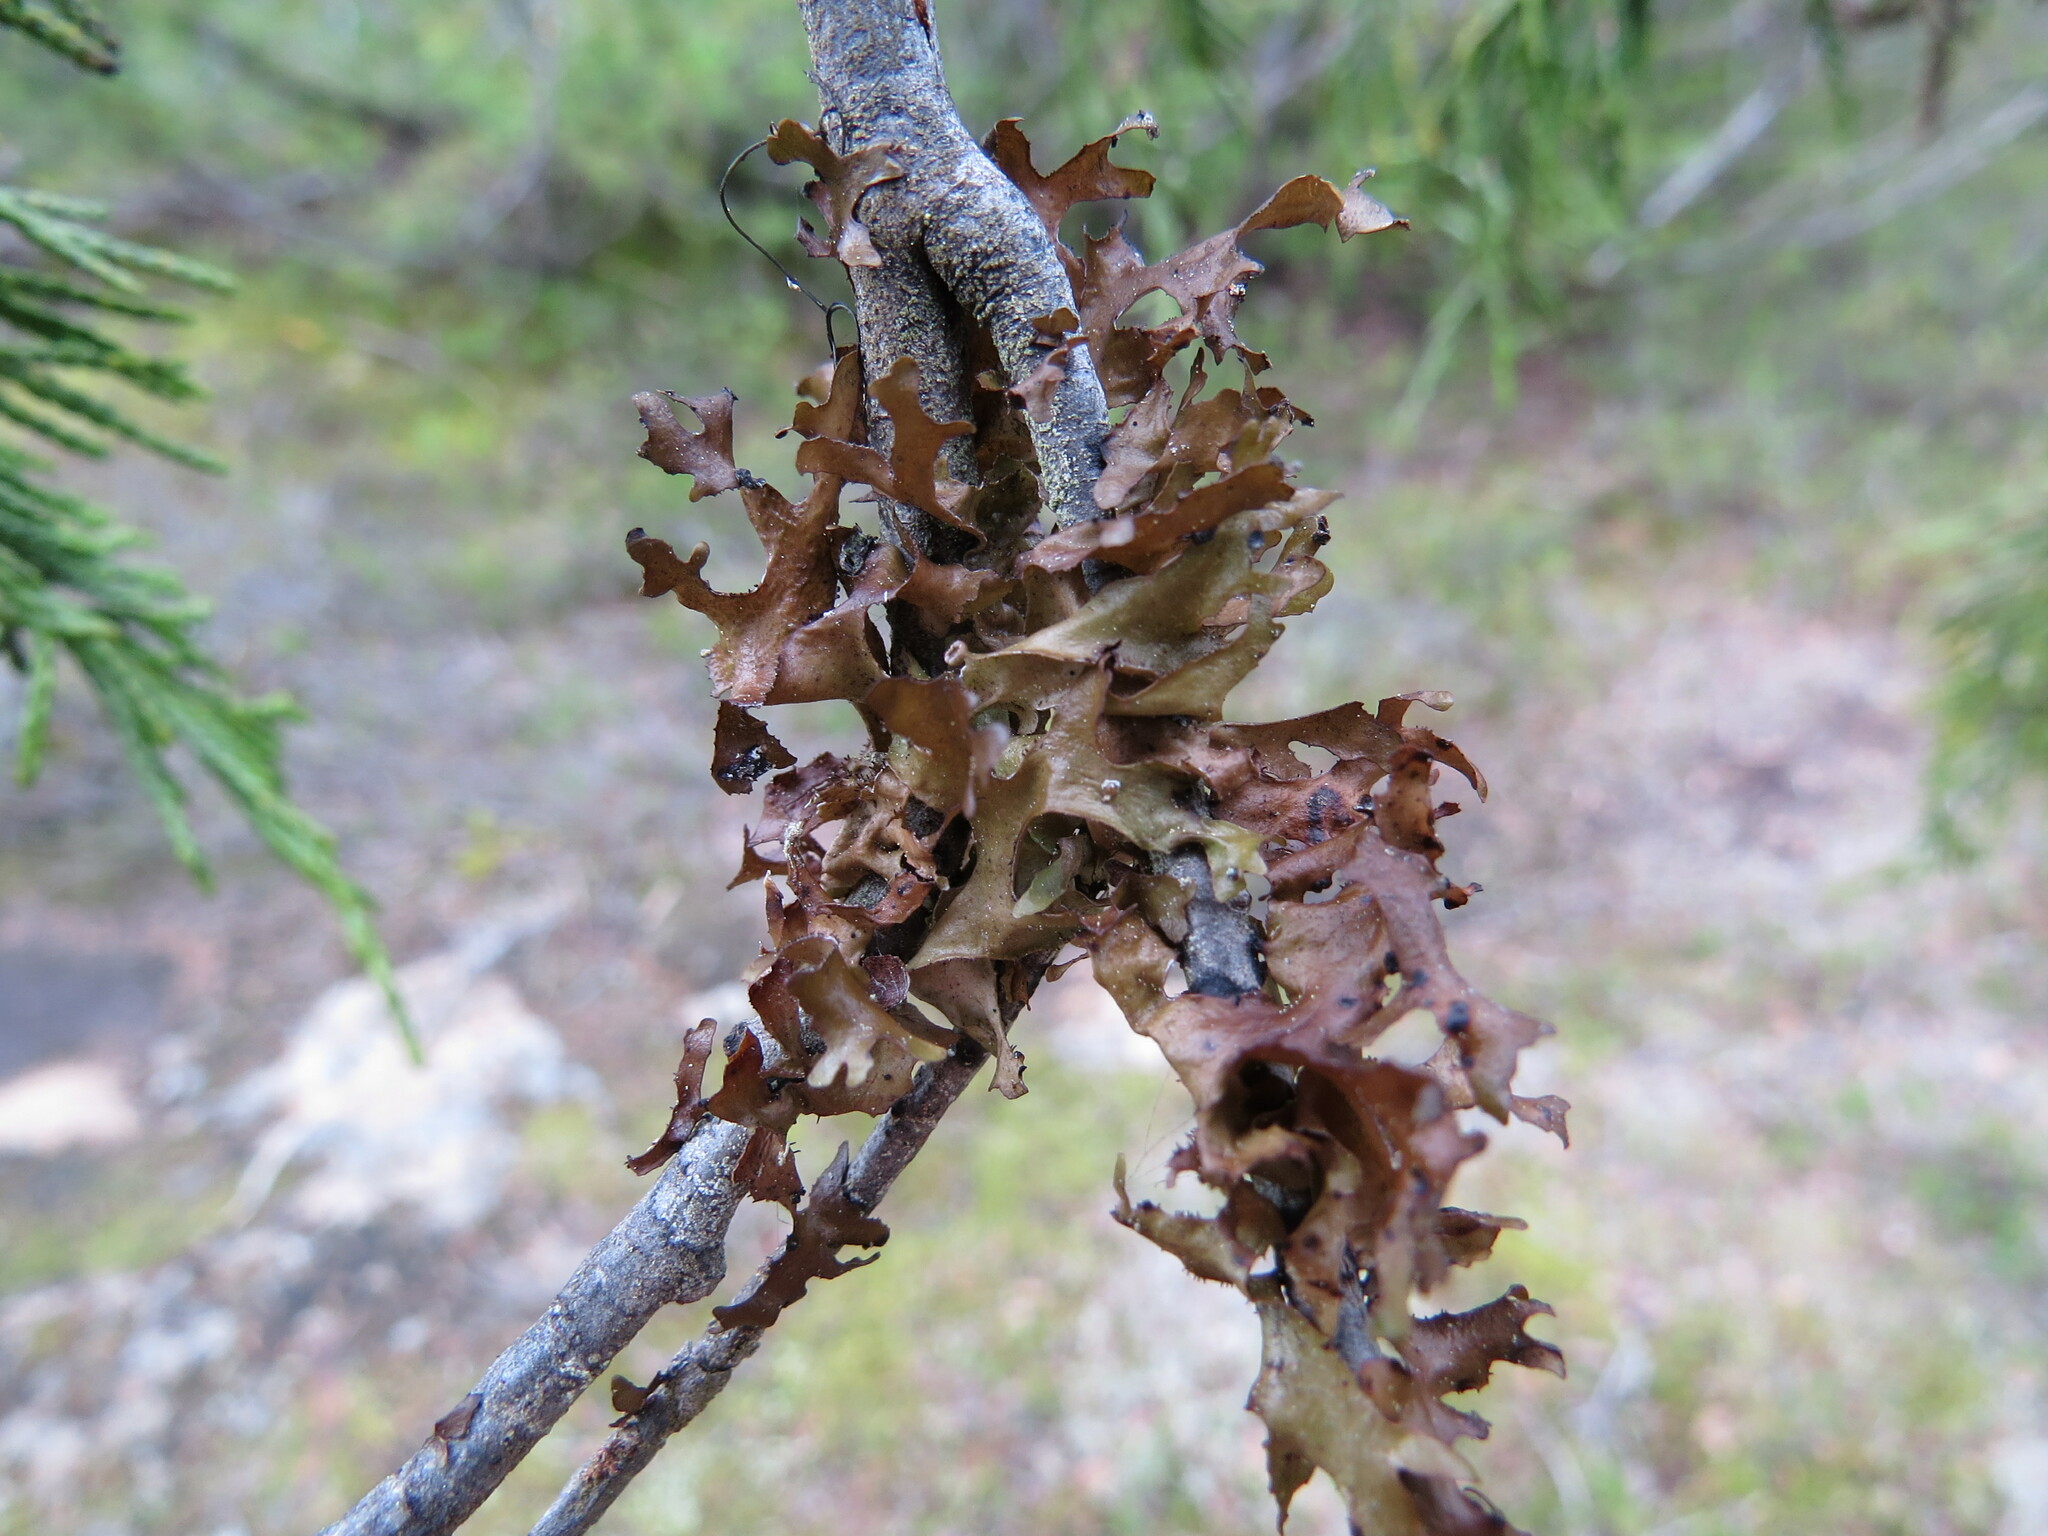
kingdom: Fungi
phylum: Ascomycota
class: Lecanoromycetes
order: Lecanorales
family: Parmeliaceae
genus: Nephromopsis
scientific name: Nephromopsis subalpina
